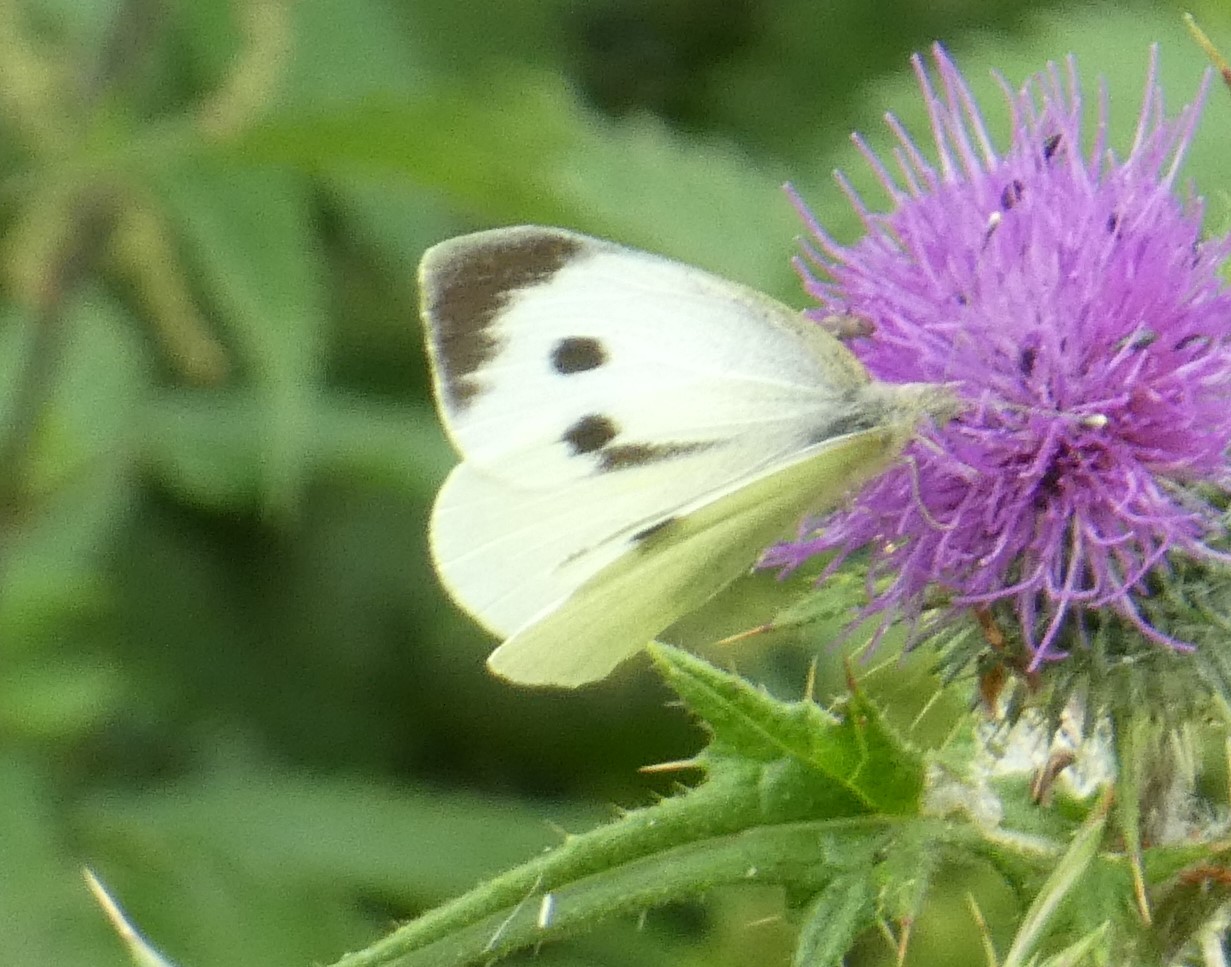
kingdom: Animalia
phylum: Arthropoda
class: Insecta
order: Lepidoptera
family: Pieridae
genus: Pieris
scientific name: Pieris brassicae
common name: Large white
